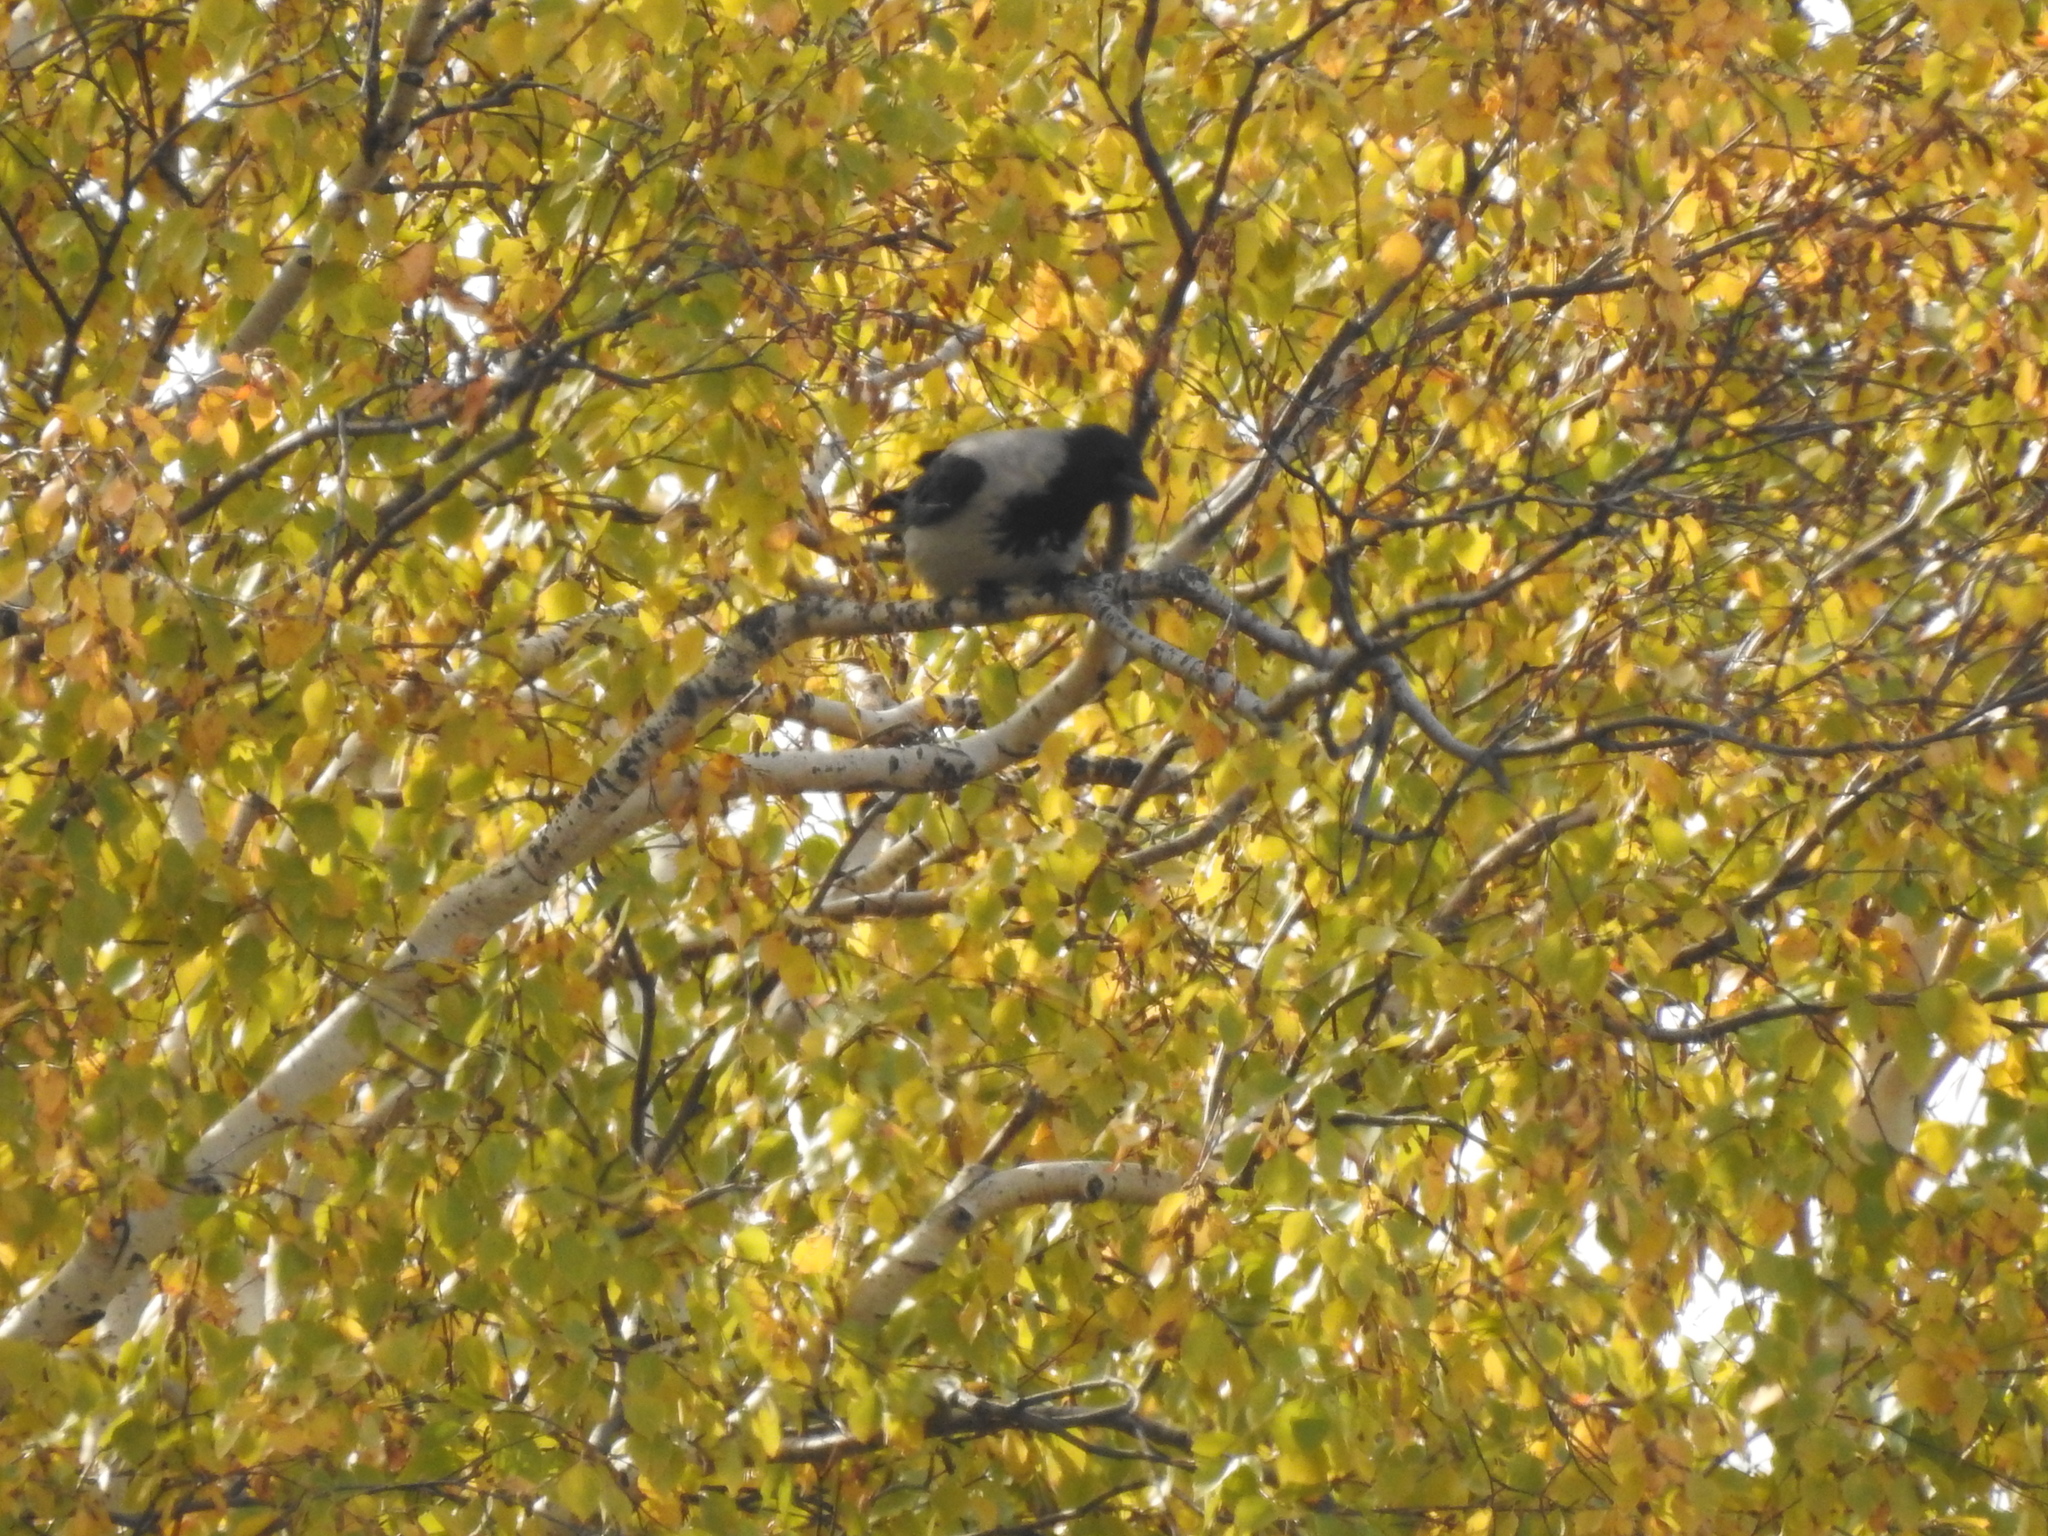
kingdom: Animalia
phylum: Chordata
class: Aves
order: Passeriformes
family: Corvidae
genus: Corvus
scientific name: Corvus cornix
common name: Hooded crow
